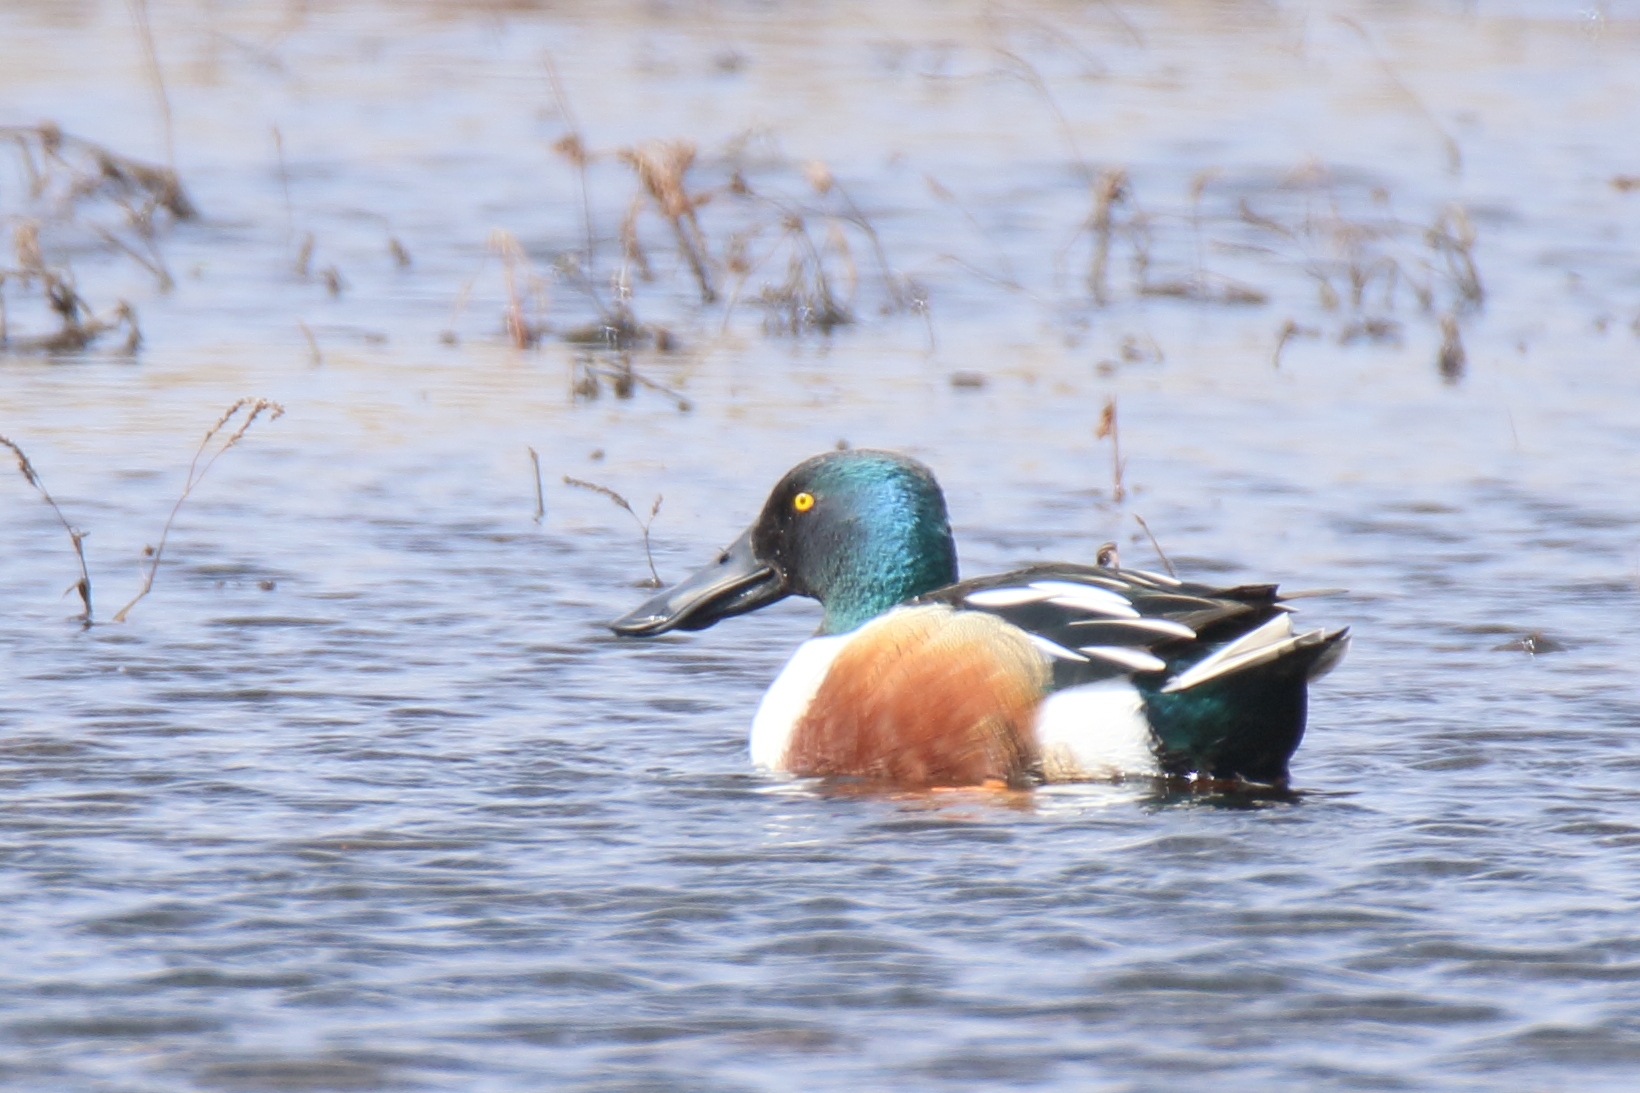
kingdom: Animalia
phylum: Chordata
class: Aves
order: Anseriformes
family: Anatidae
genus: Spatula
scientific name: Spatula clypeata
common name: Northern shoveler
